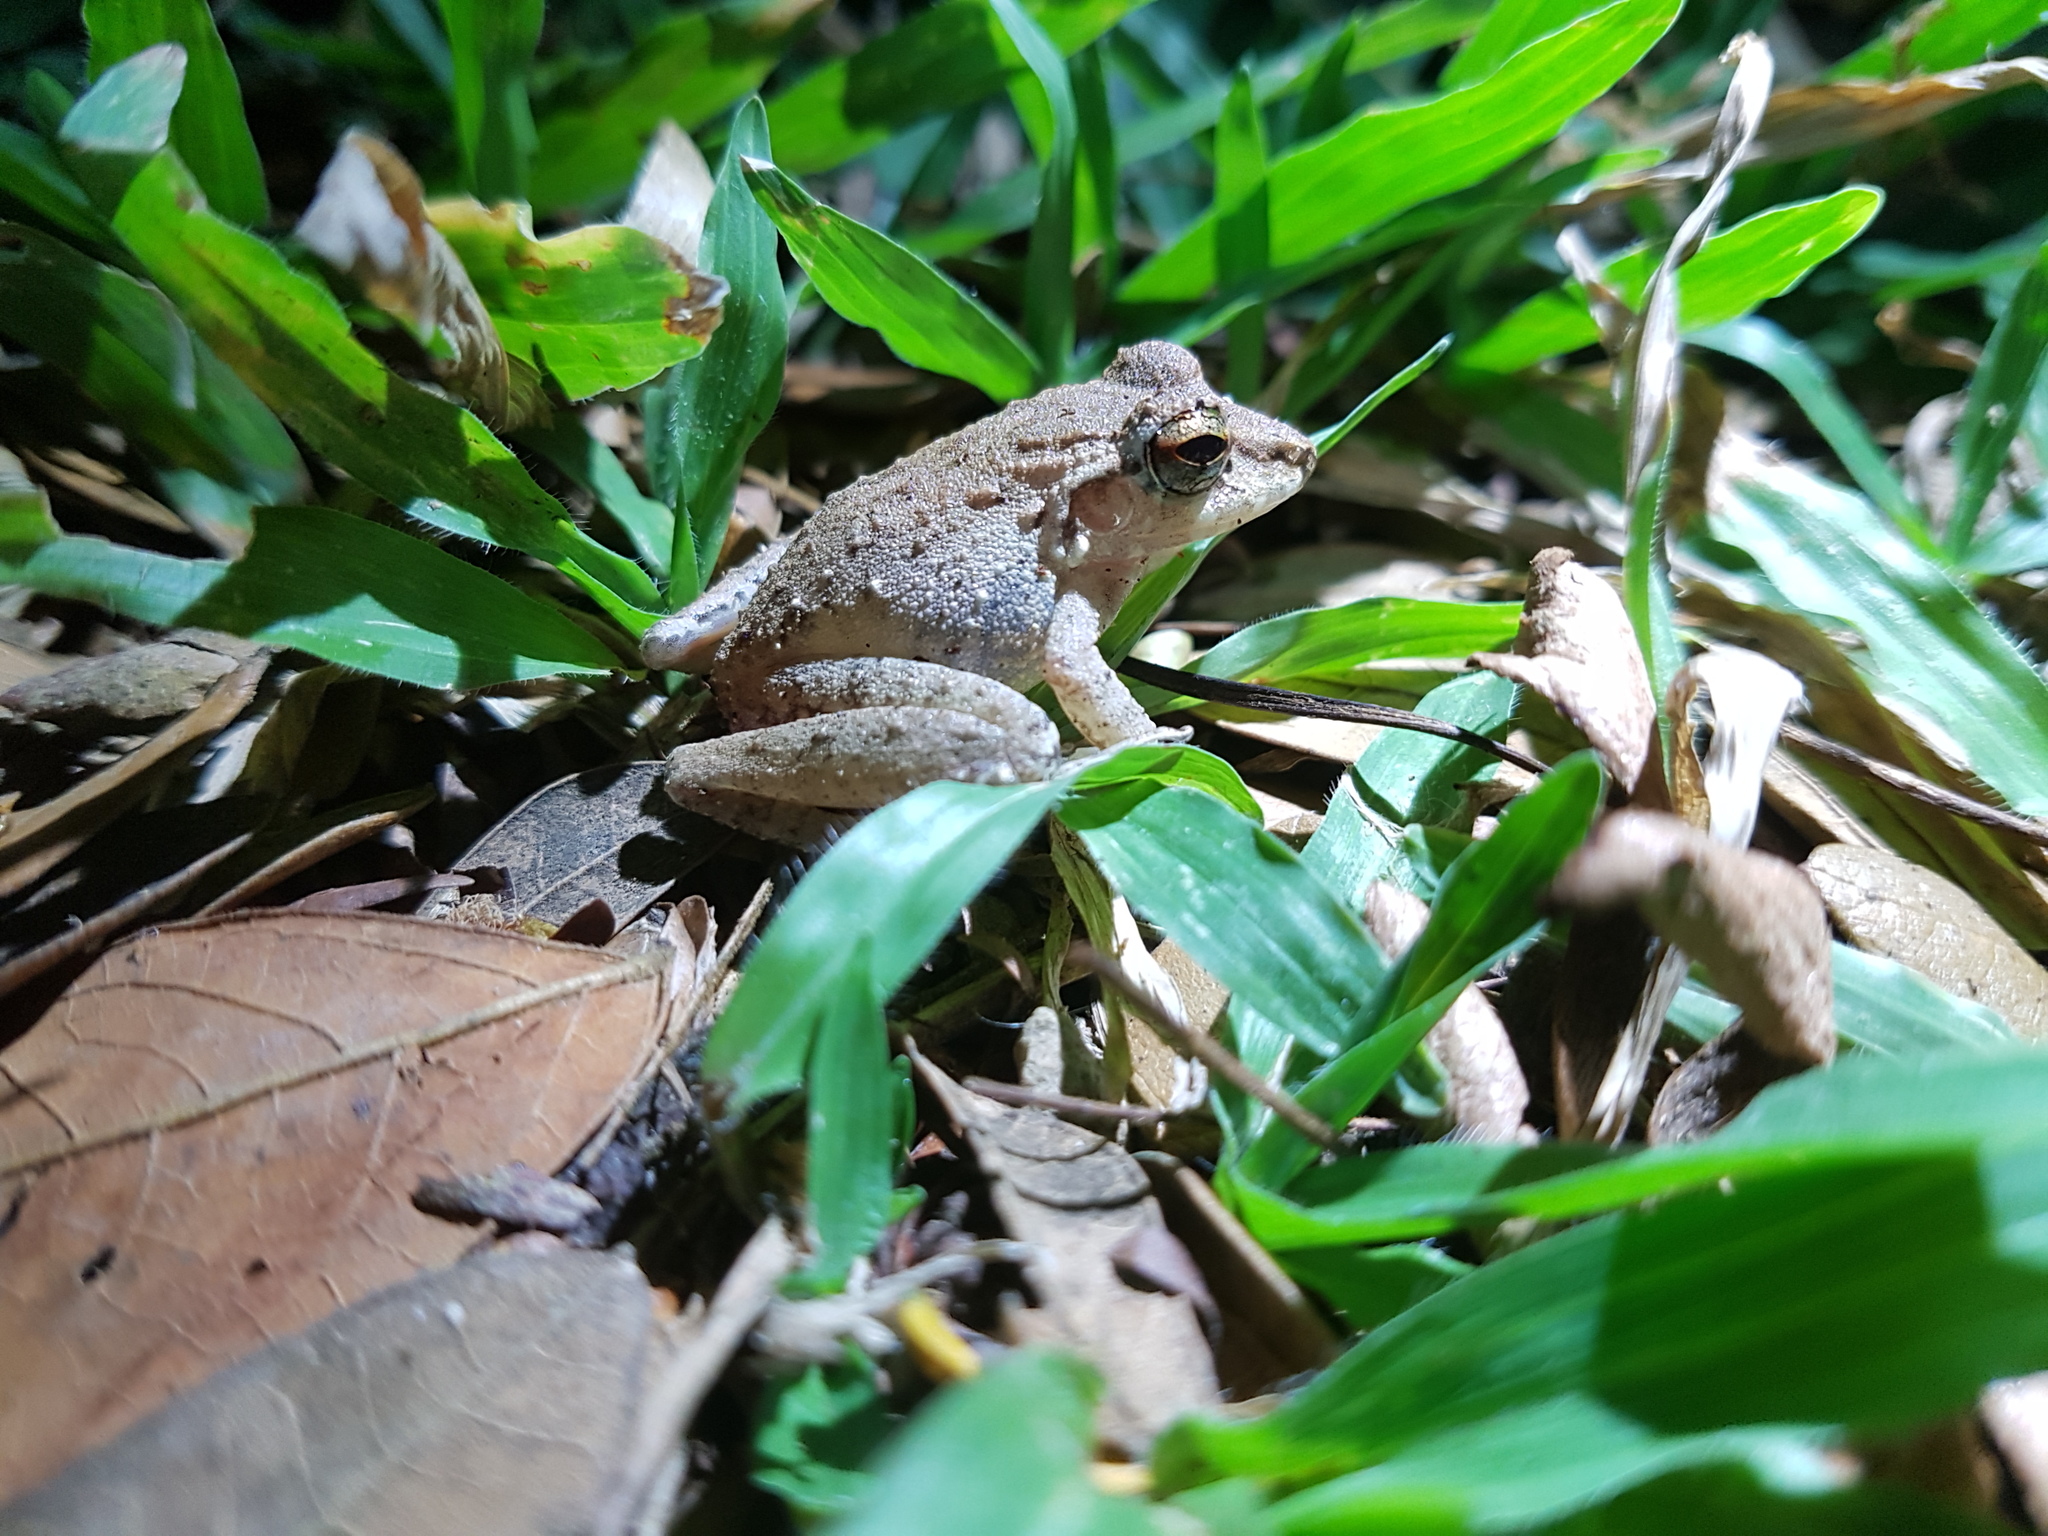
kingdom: Animalia
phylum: Chordata
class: Amphibia
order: Anura
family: Craugastoridae
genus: Craugastor
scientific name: Craugastor fitzingeri
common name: Fitzinger's robber frog
